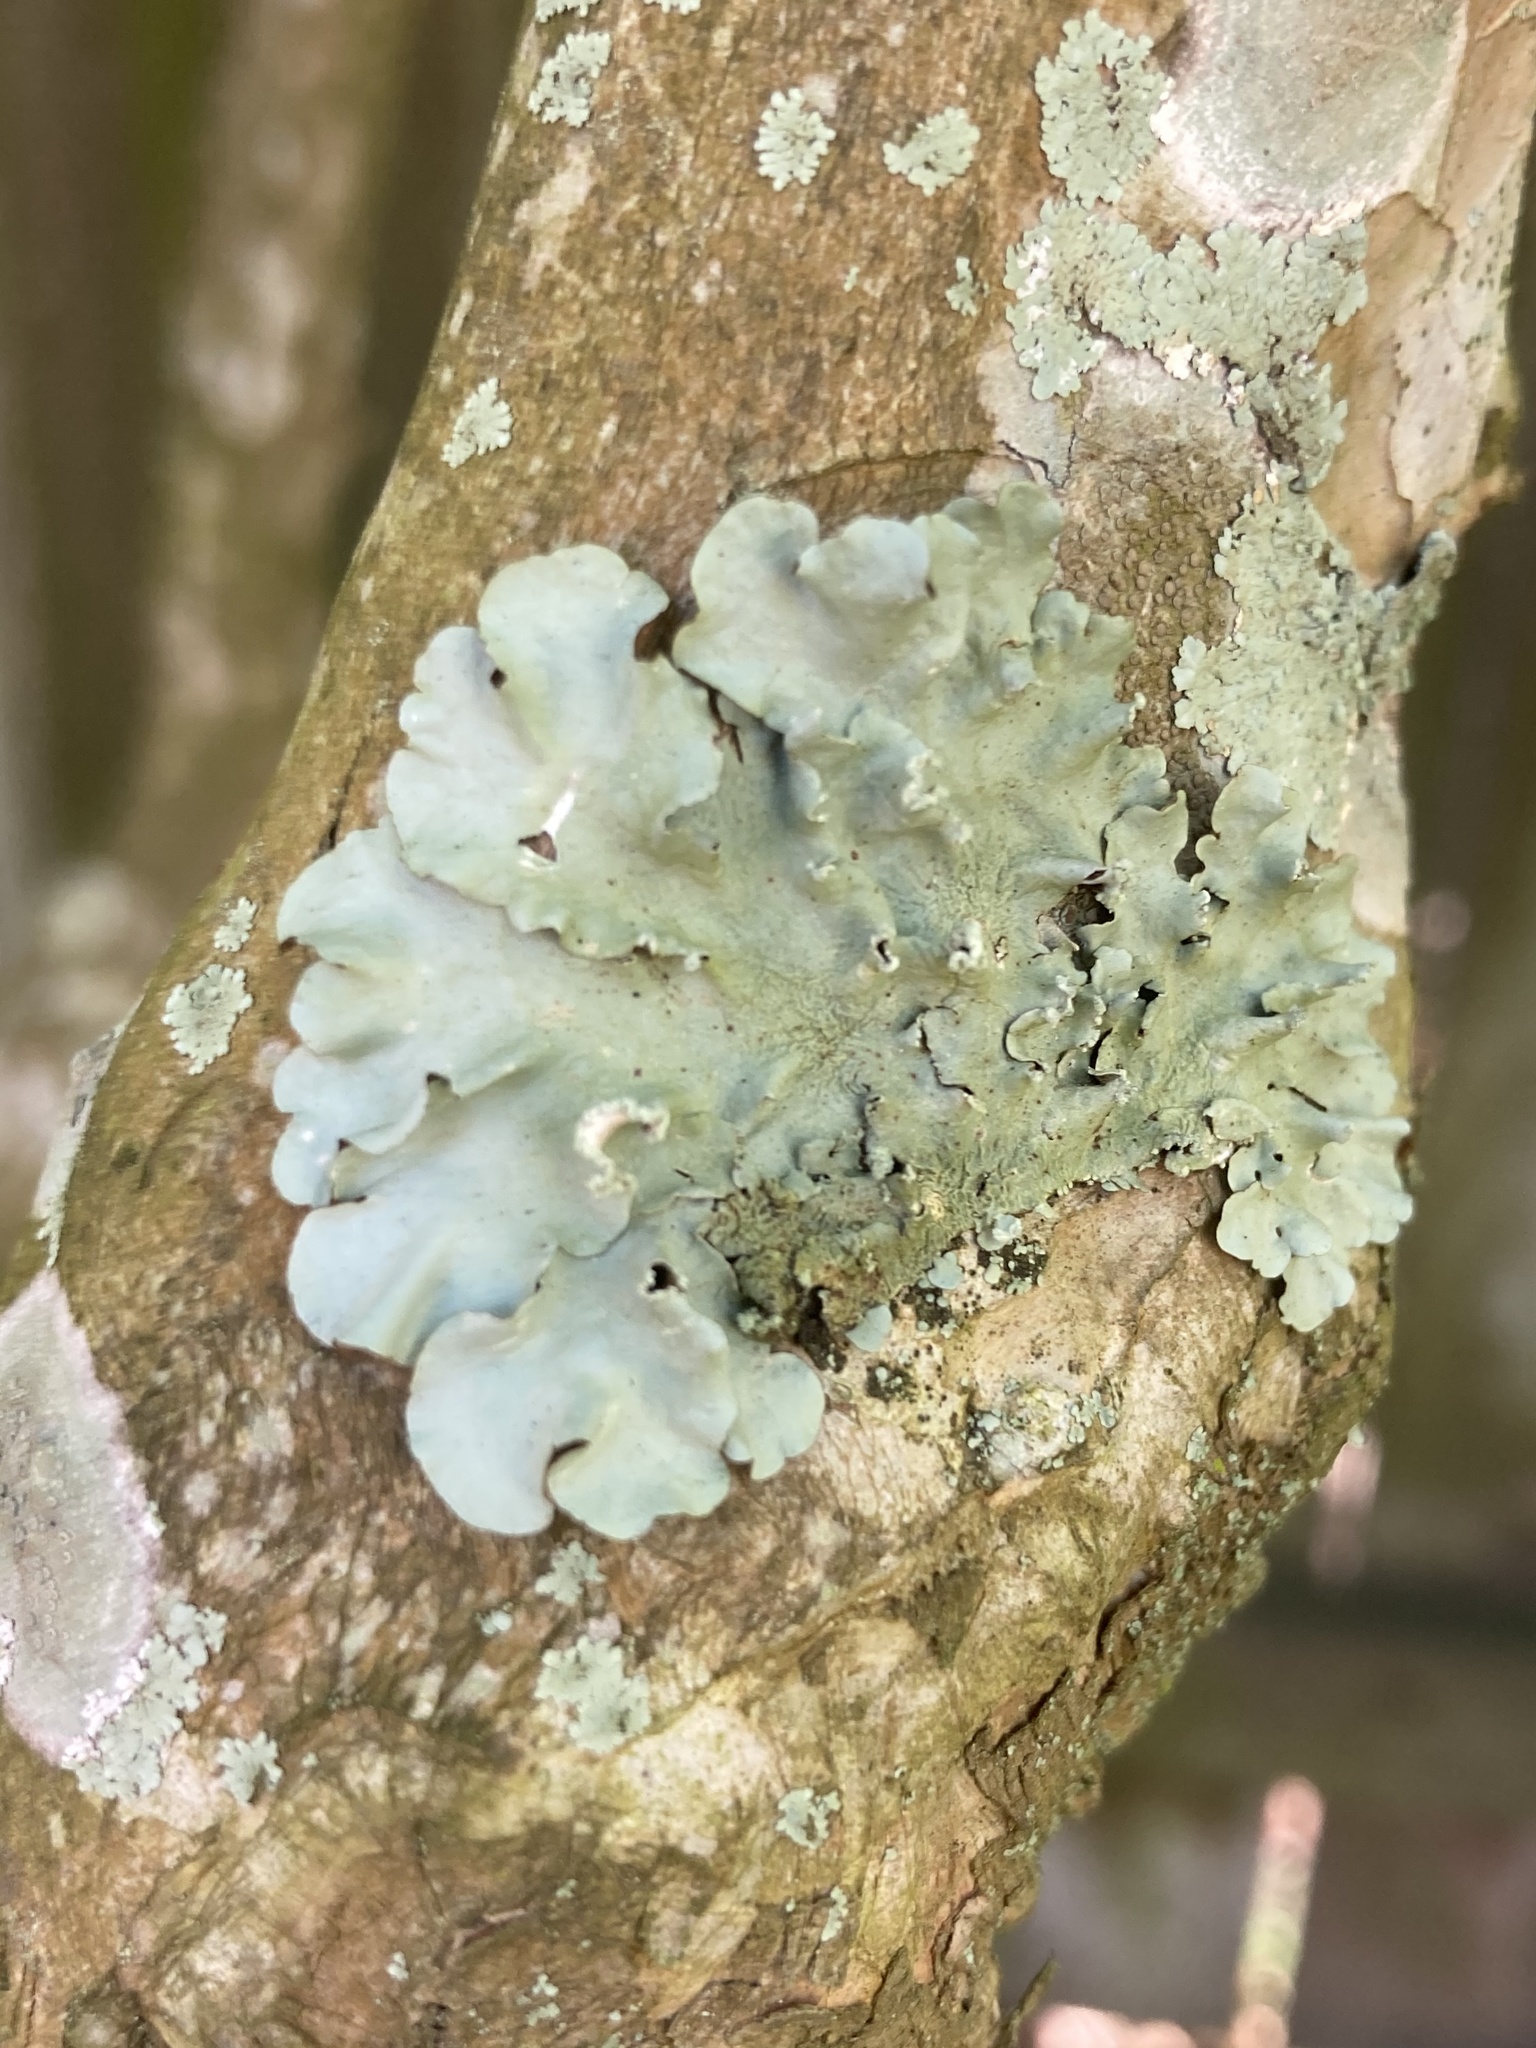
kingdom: Fungi
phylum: Ascomycota
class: Lecanoromycetes
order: Lecanorales
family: Parmeliaceae
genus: Flavoparmelia
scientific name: Flavoparmelia caperata
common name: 40-mile per hour lichen
